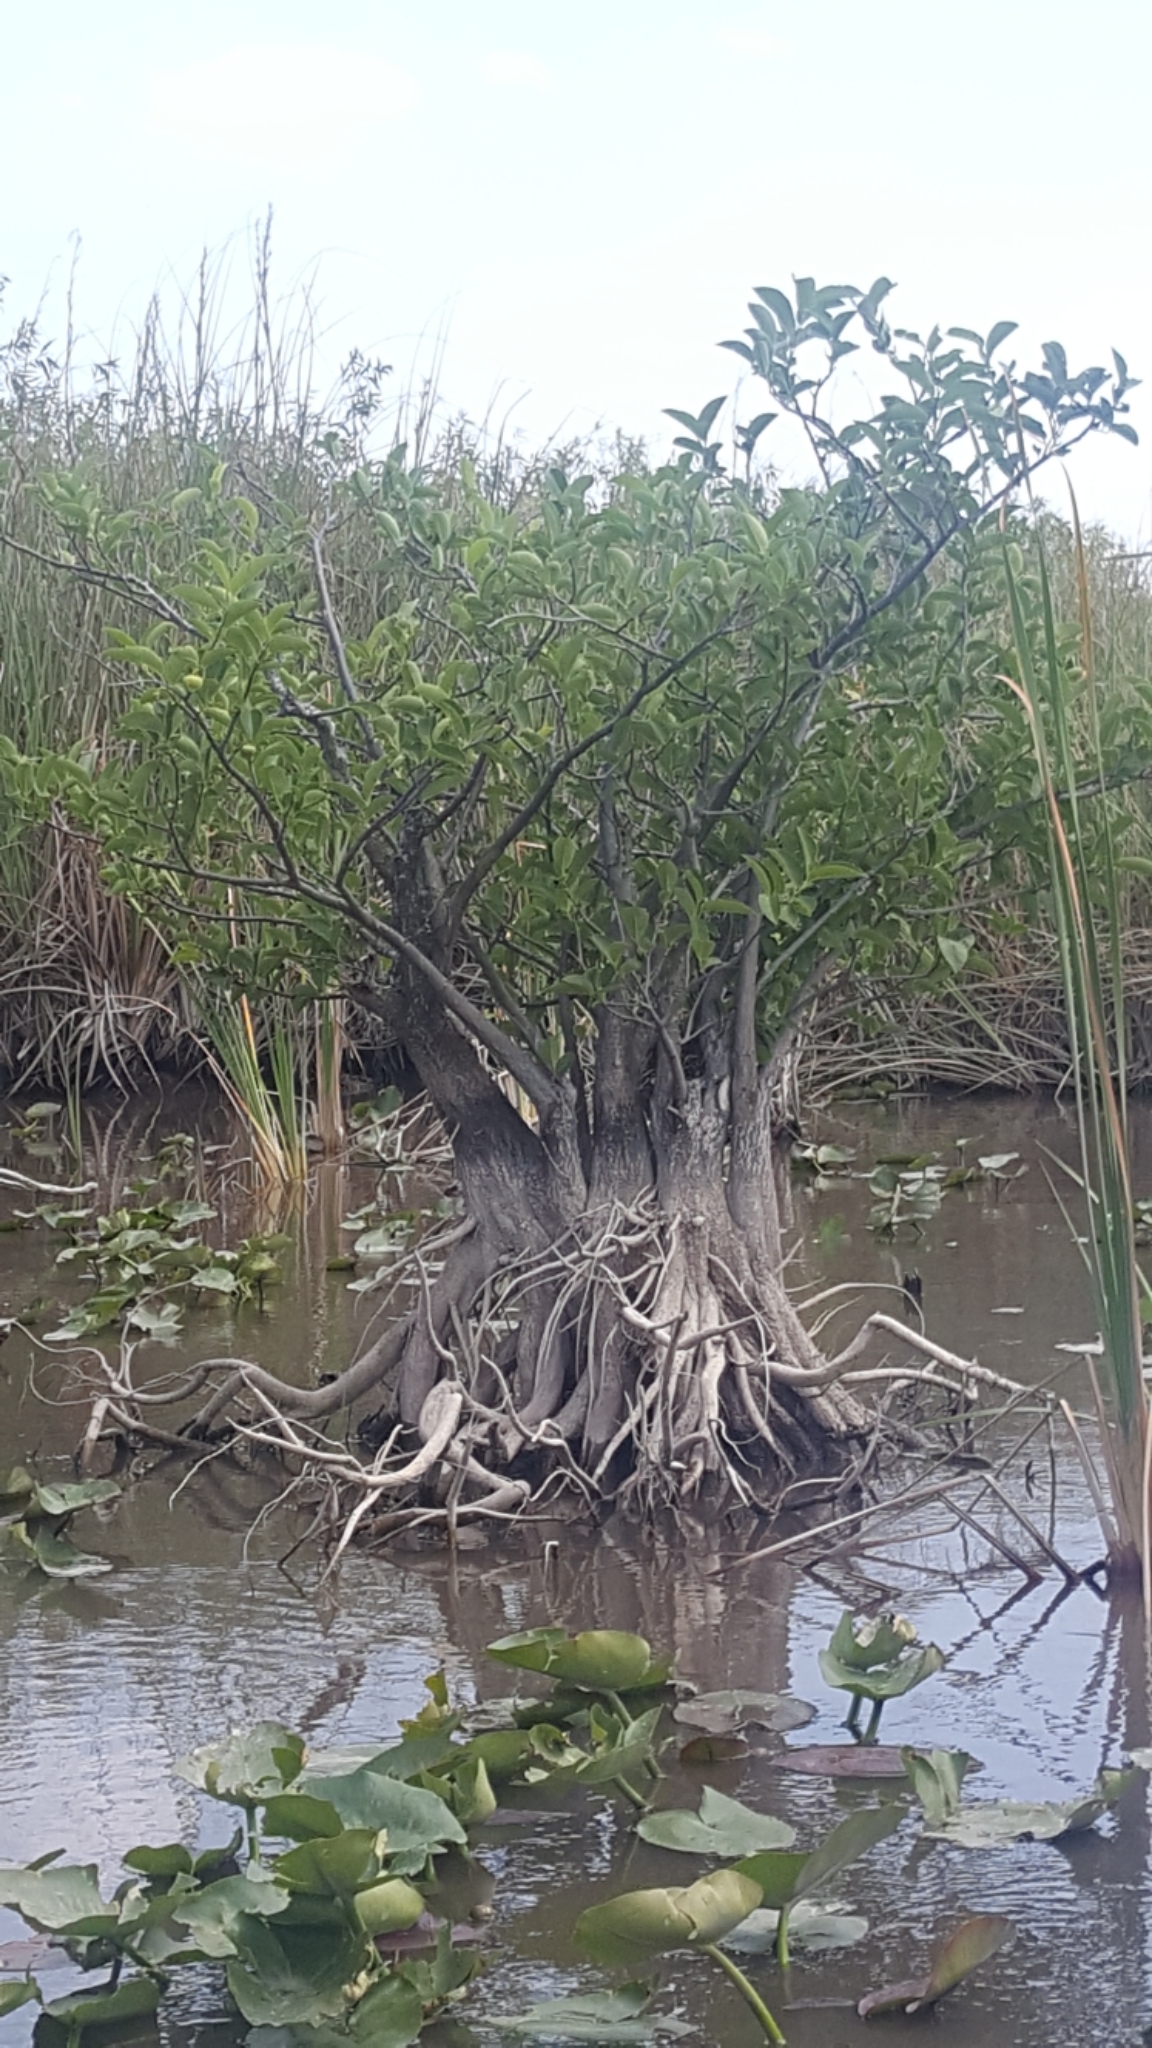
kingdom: Plantae
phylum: Tracheophyta
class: Magnoliopsida
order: Magnoliales
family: Annonaceae
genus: Annona
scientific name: Annona glabra
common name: Monkey apple
